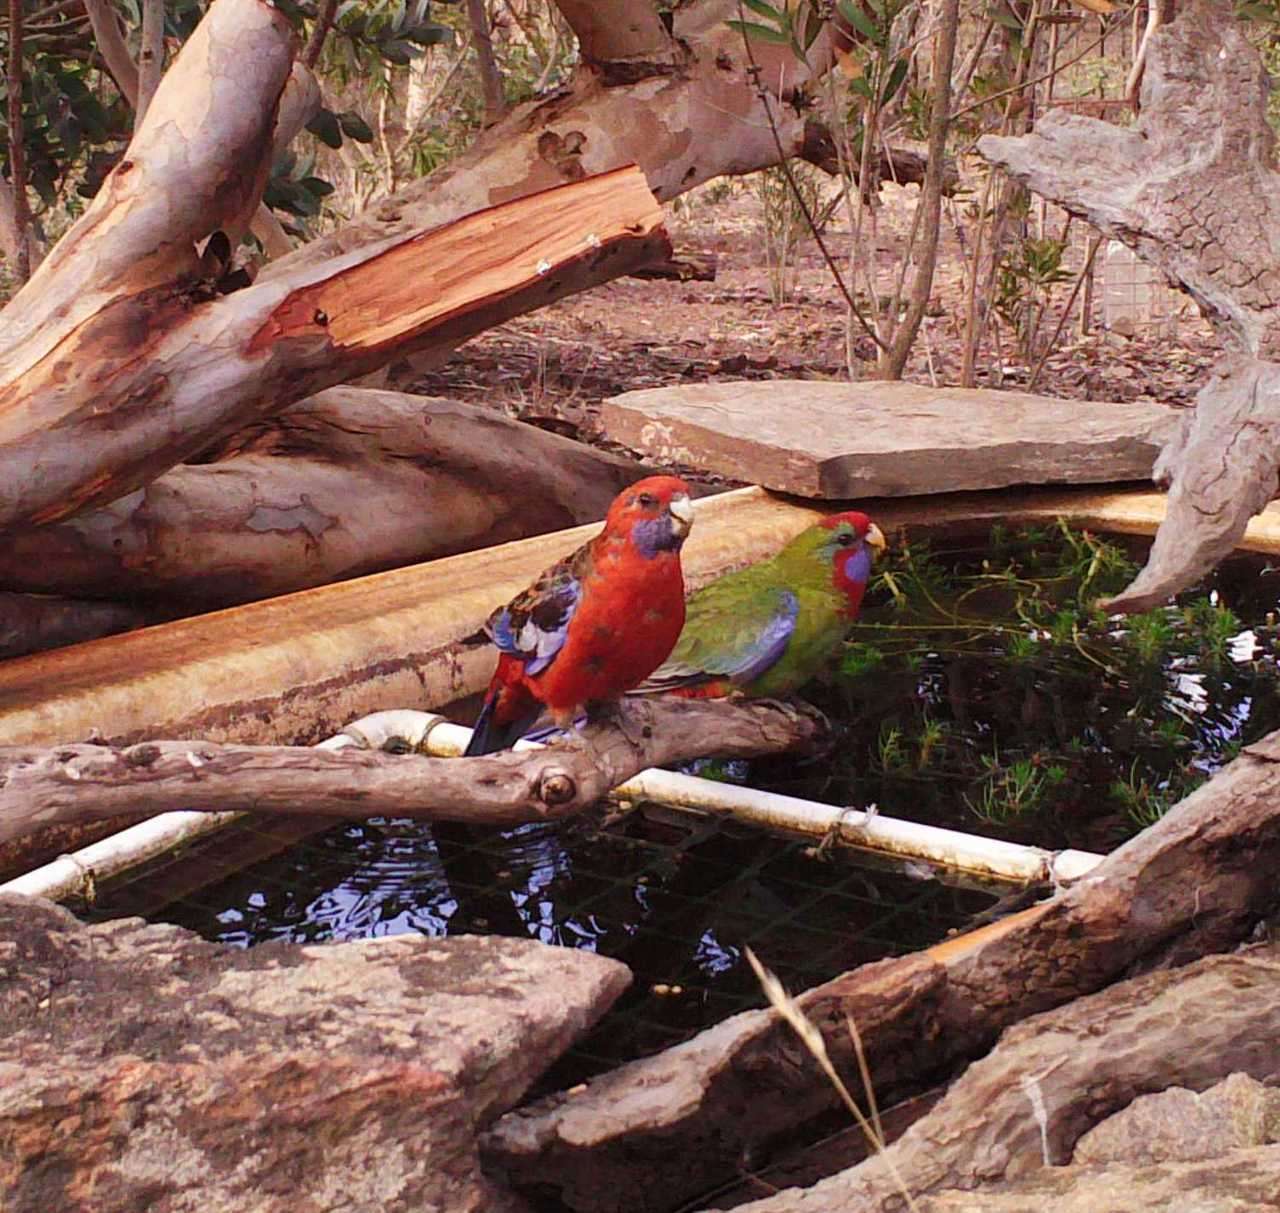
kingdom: Animalia
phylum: Chordata
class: Aves
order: Psittaciformes
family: Psittacidae
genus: Platycercus
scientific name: Platycercus elegans
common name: Crimson rosella
